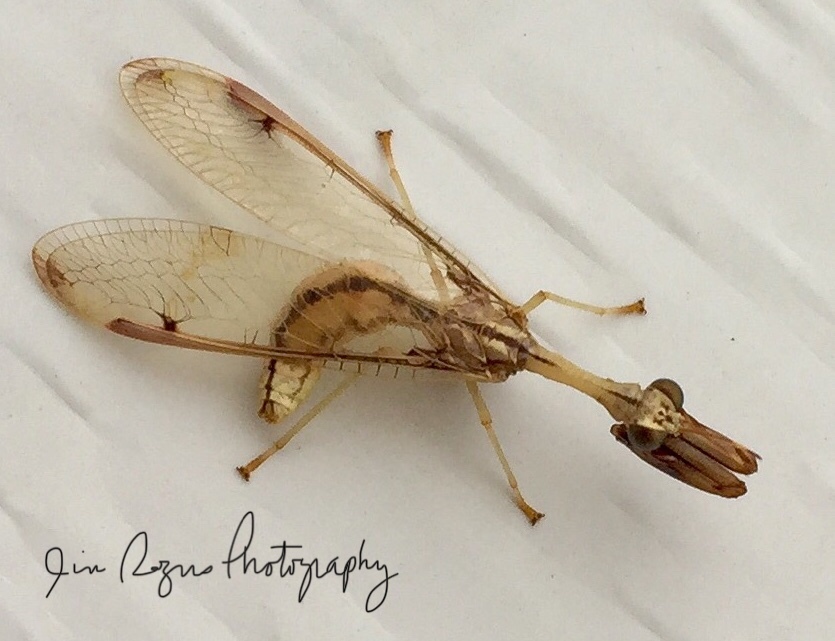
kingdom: Animalia
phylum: Arthropoda
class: Insecta
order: Neuroptera
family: Mantispidae
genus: Dicromantispa
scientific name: Dicromantispa interrupta
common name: Four-spotted mantidfly
